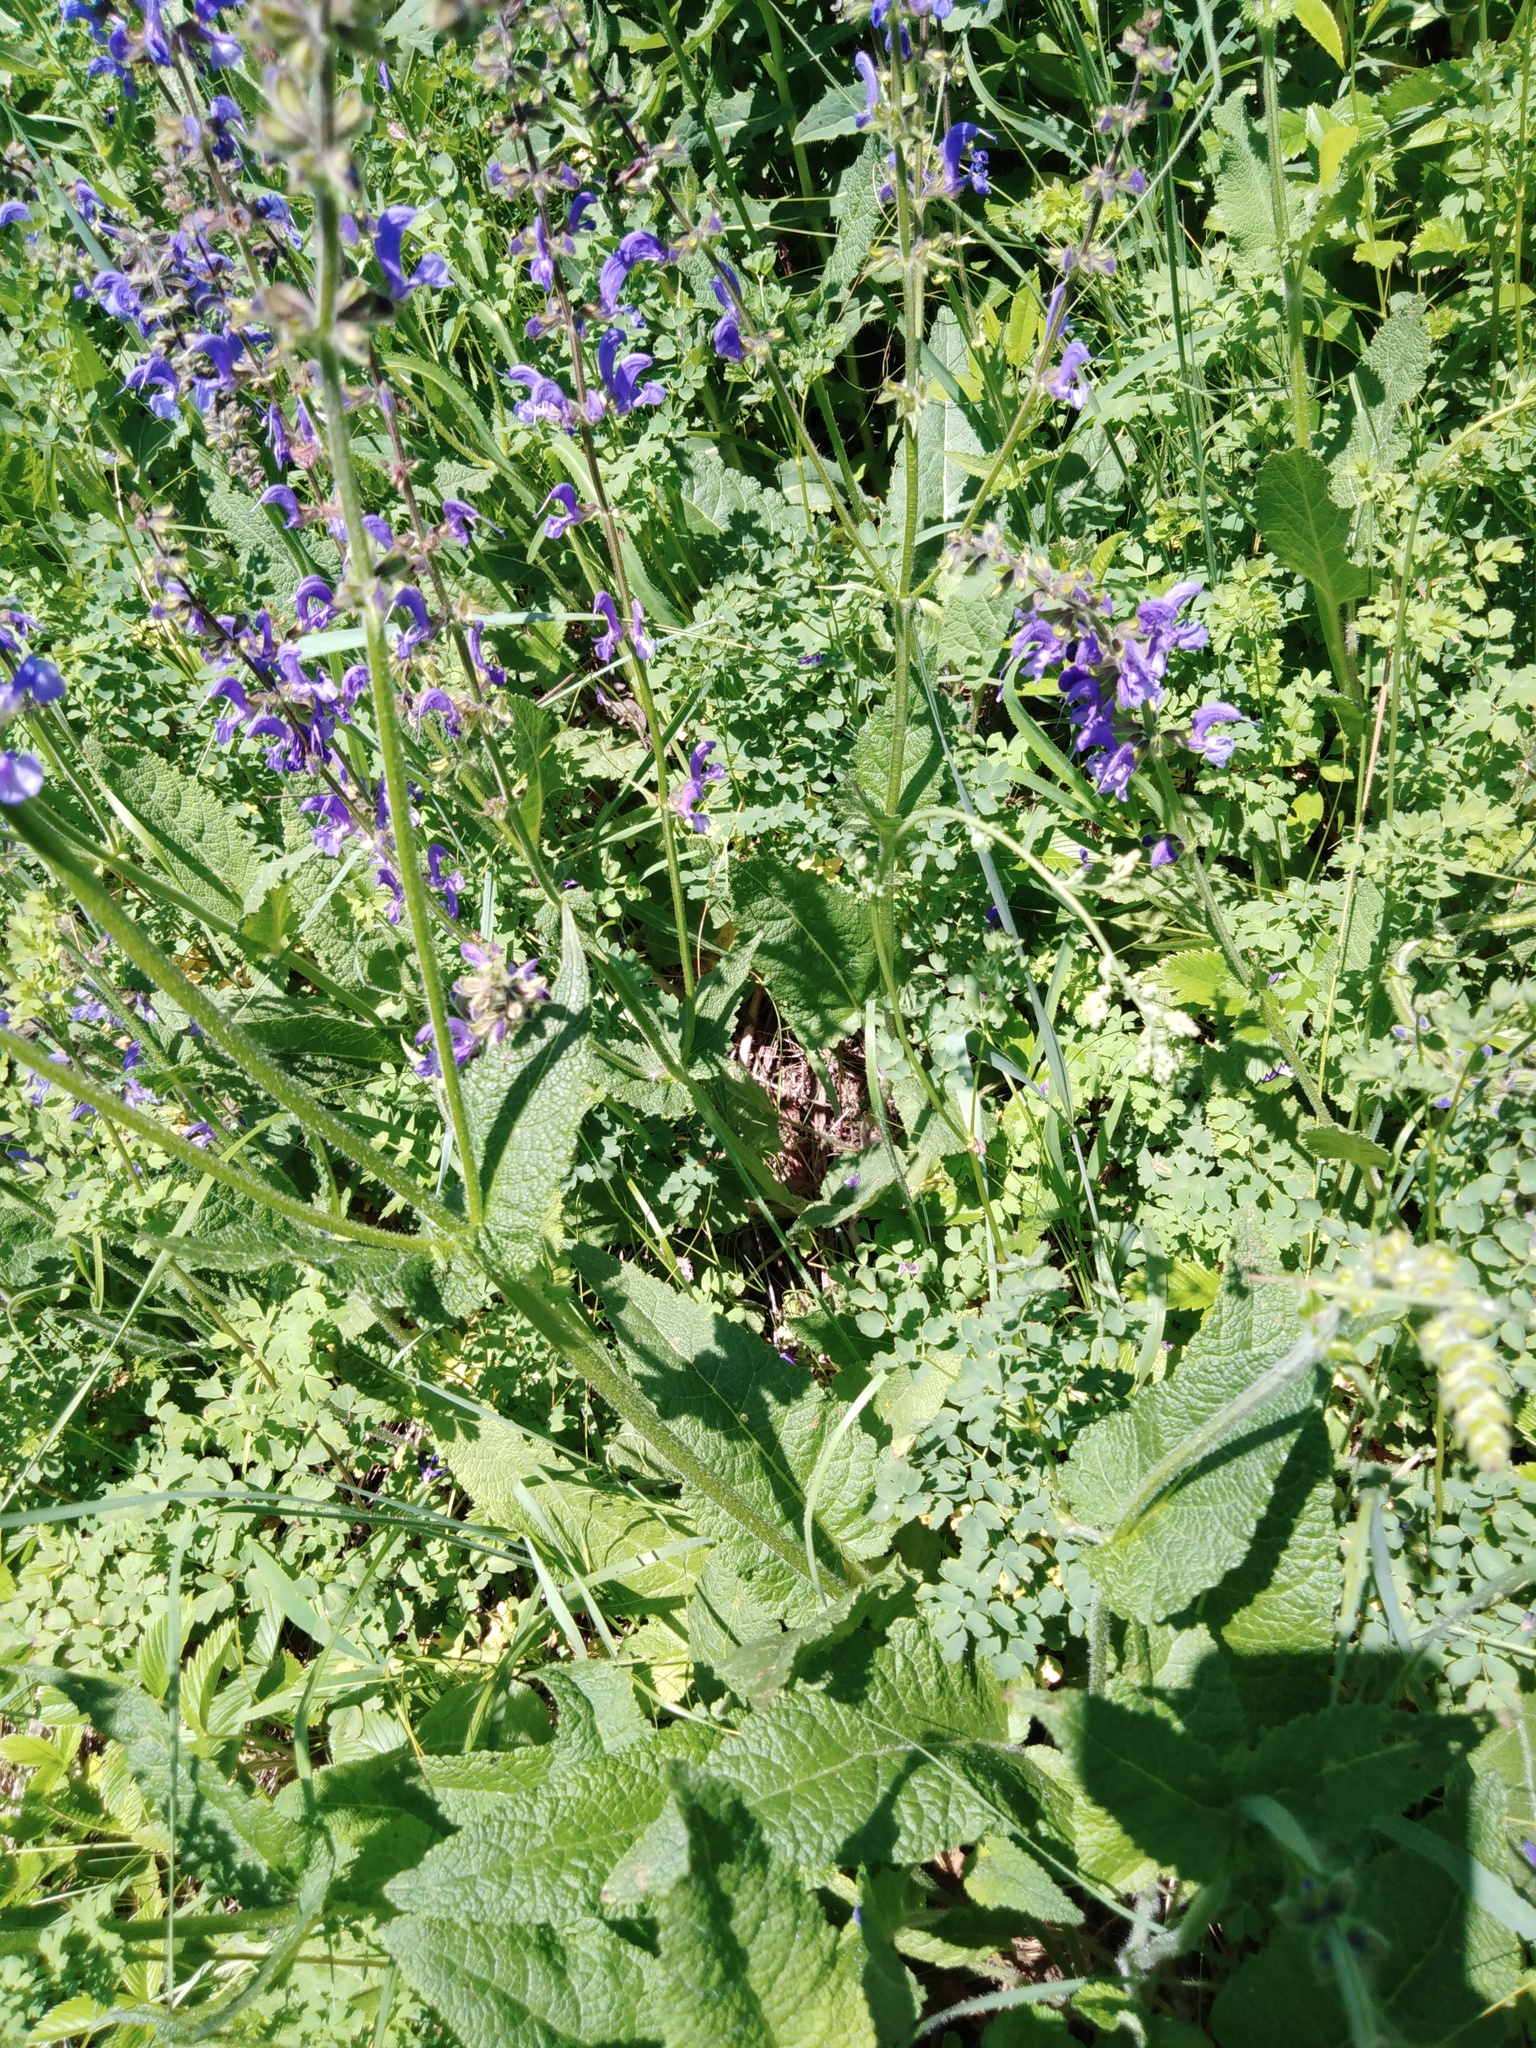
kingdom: Plantae
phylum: Tracheophyta
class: Magnoliopsida
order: Lamiales
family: Lamiaceae
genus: Salvia
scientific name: Salvia pratensis
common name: Meadow sage
